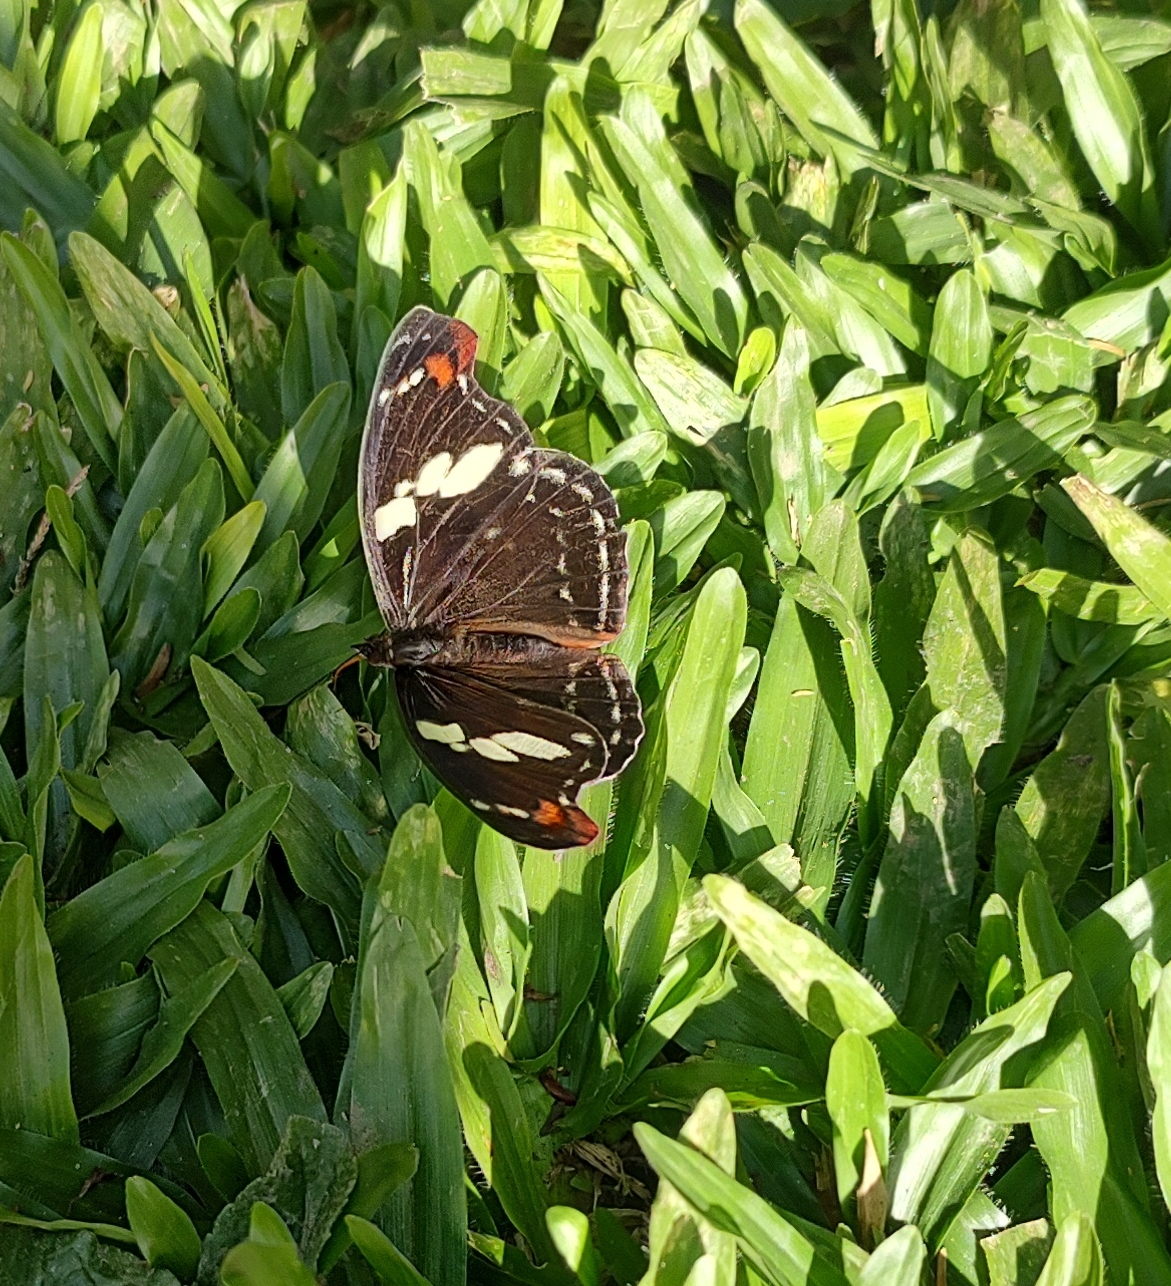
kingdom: Animalia
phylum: Arthropoda
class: Insecta
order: Lepidoptera
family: Nymphalidae
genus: Catonephele
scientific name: Catonephele numilia
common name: Blue-frosted banner
